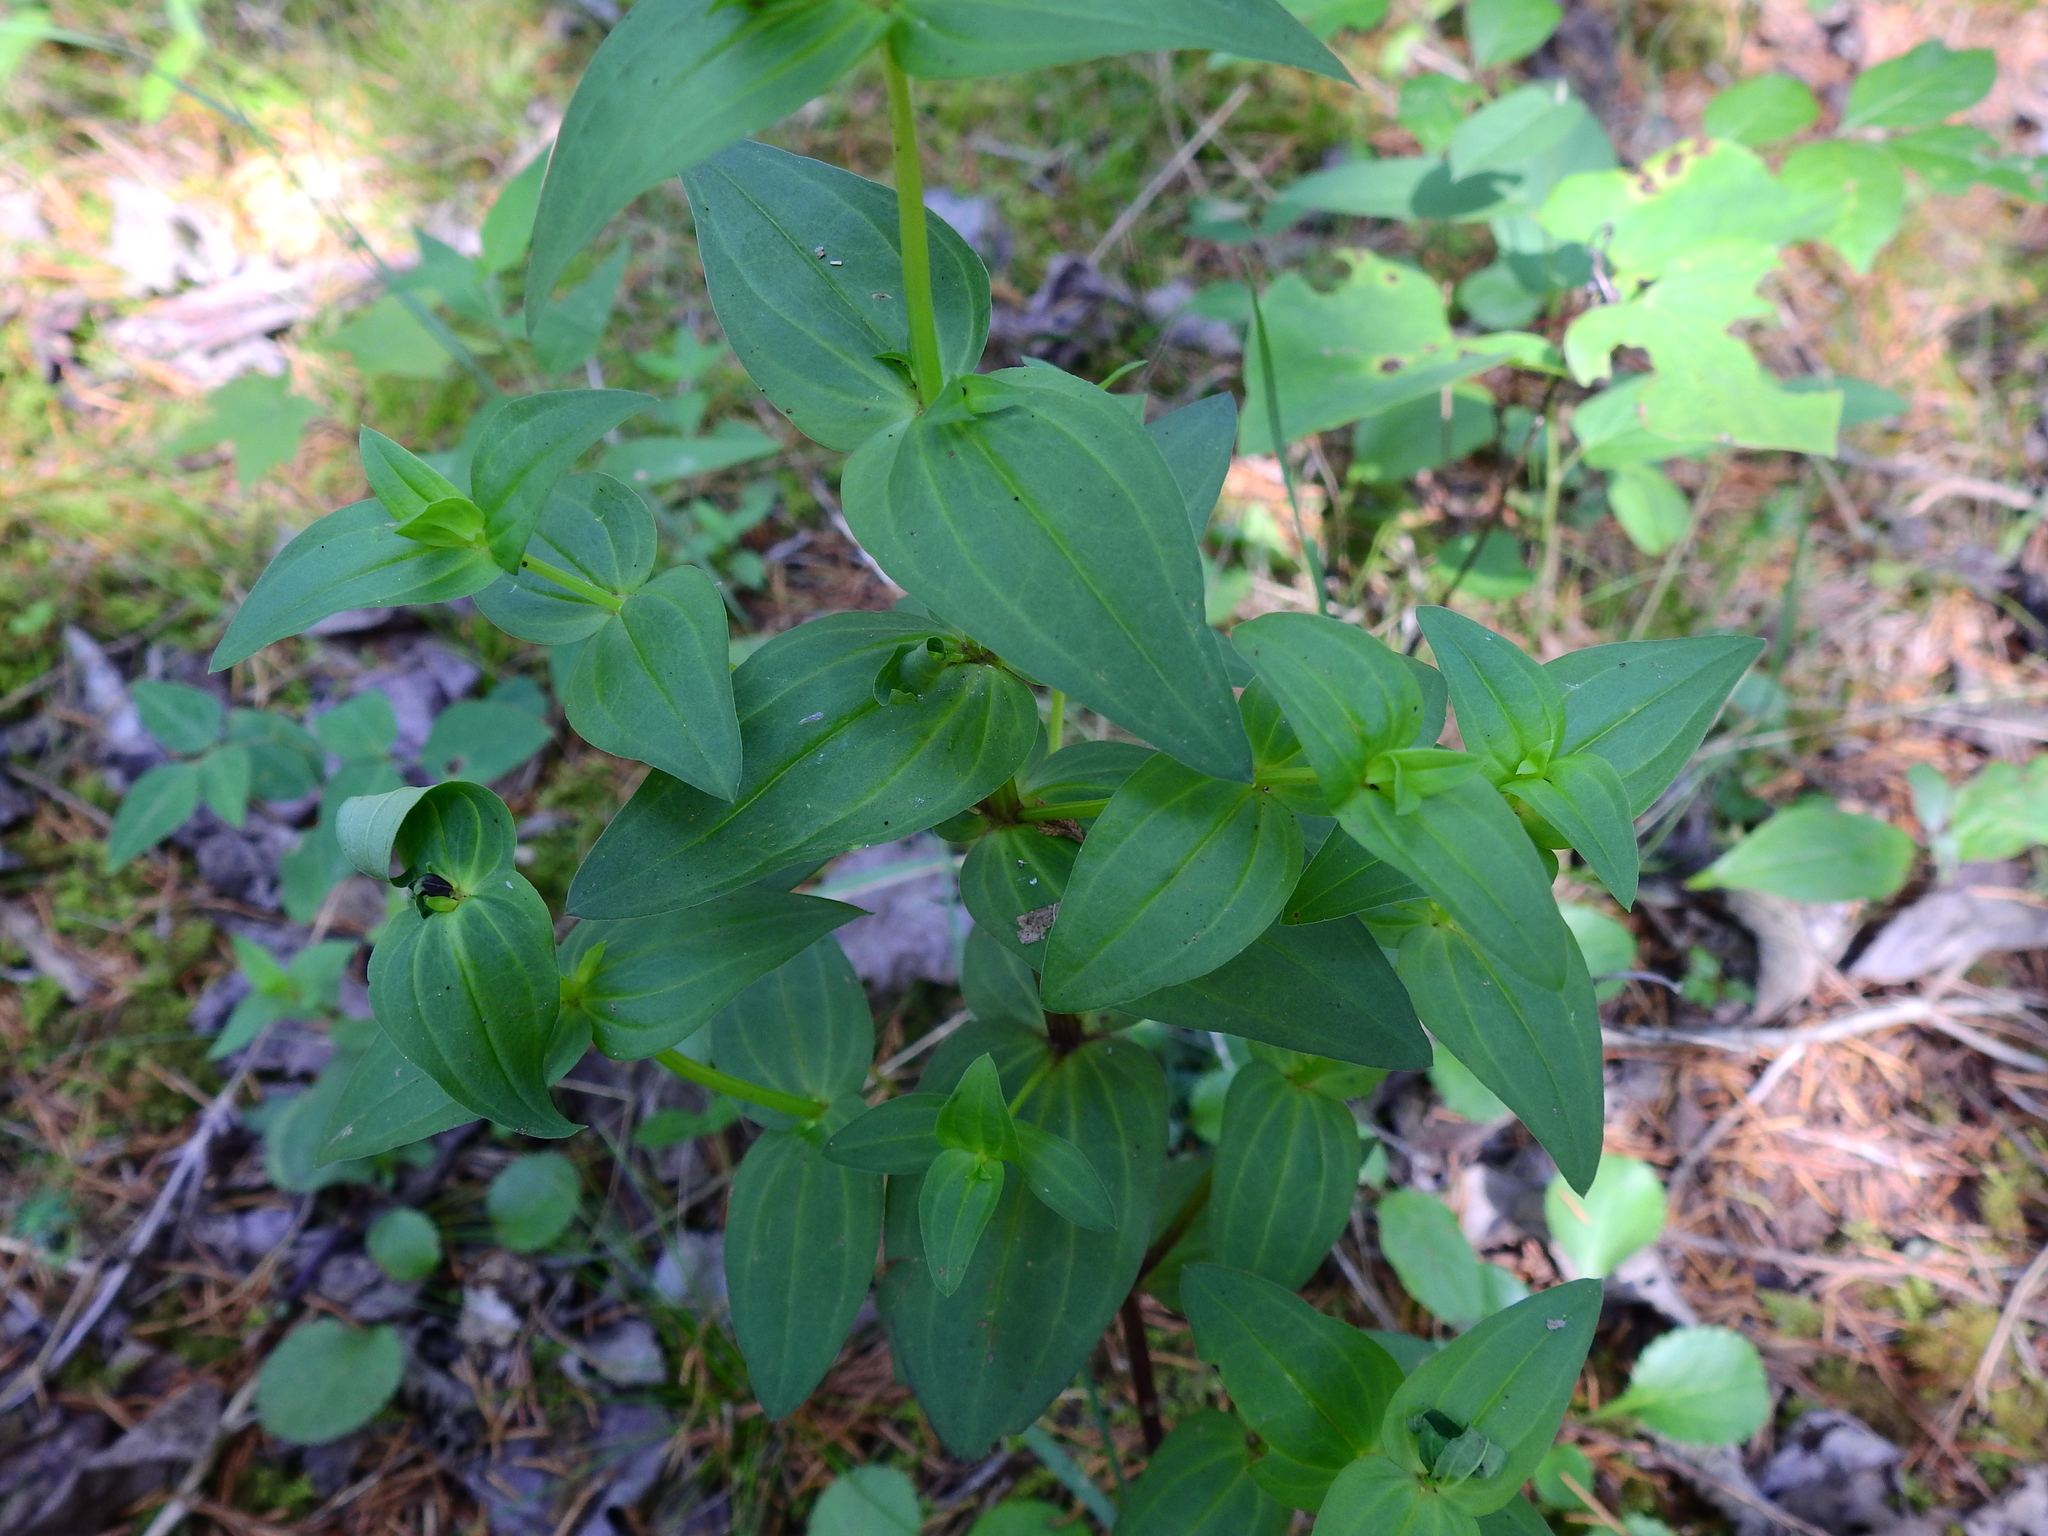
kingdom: Plantae
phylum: Tracheophyta
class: Magnoliopsida
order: Gentianales
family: Rubiaceae
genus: Houstonia
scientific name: Houstonia purpurea
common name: Summer bluet
